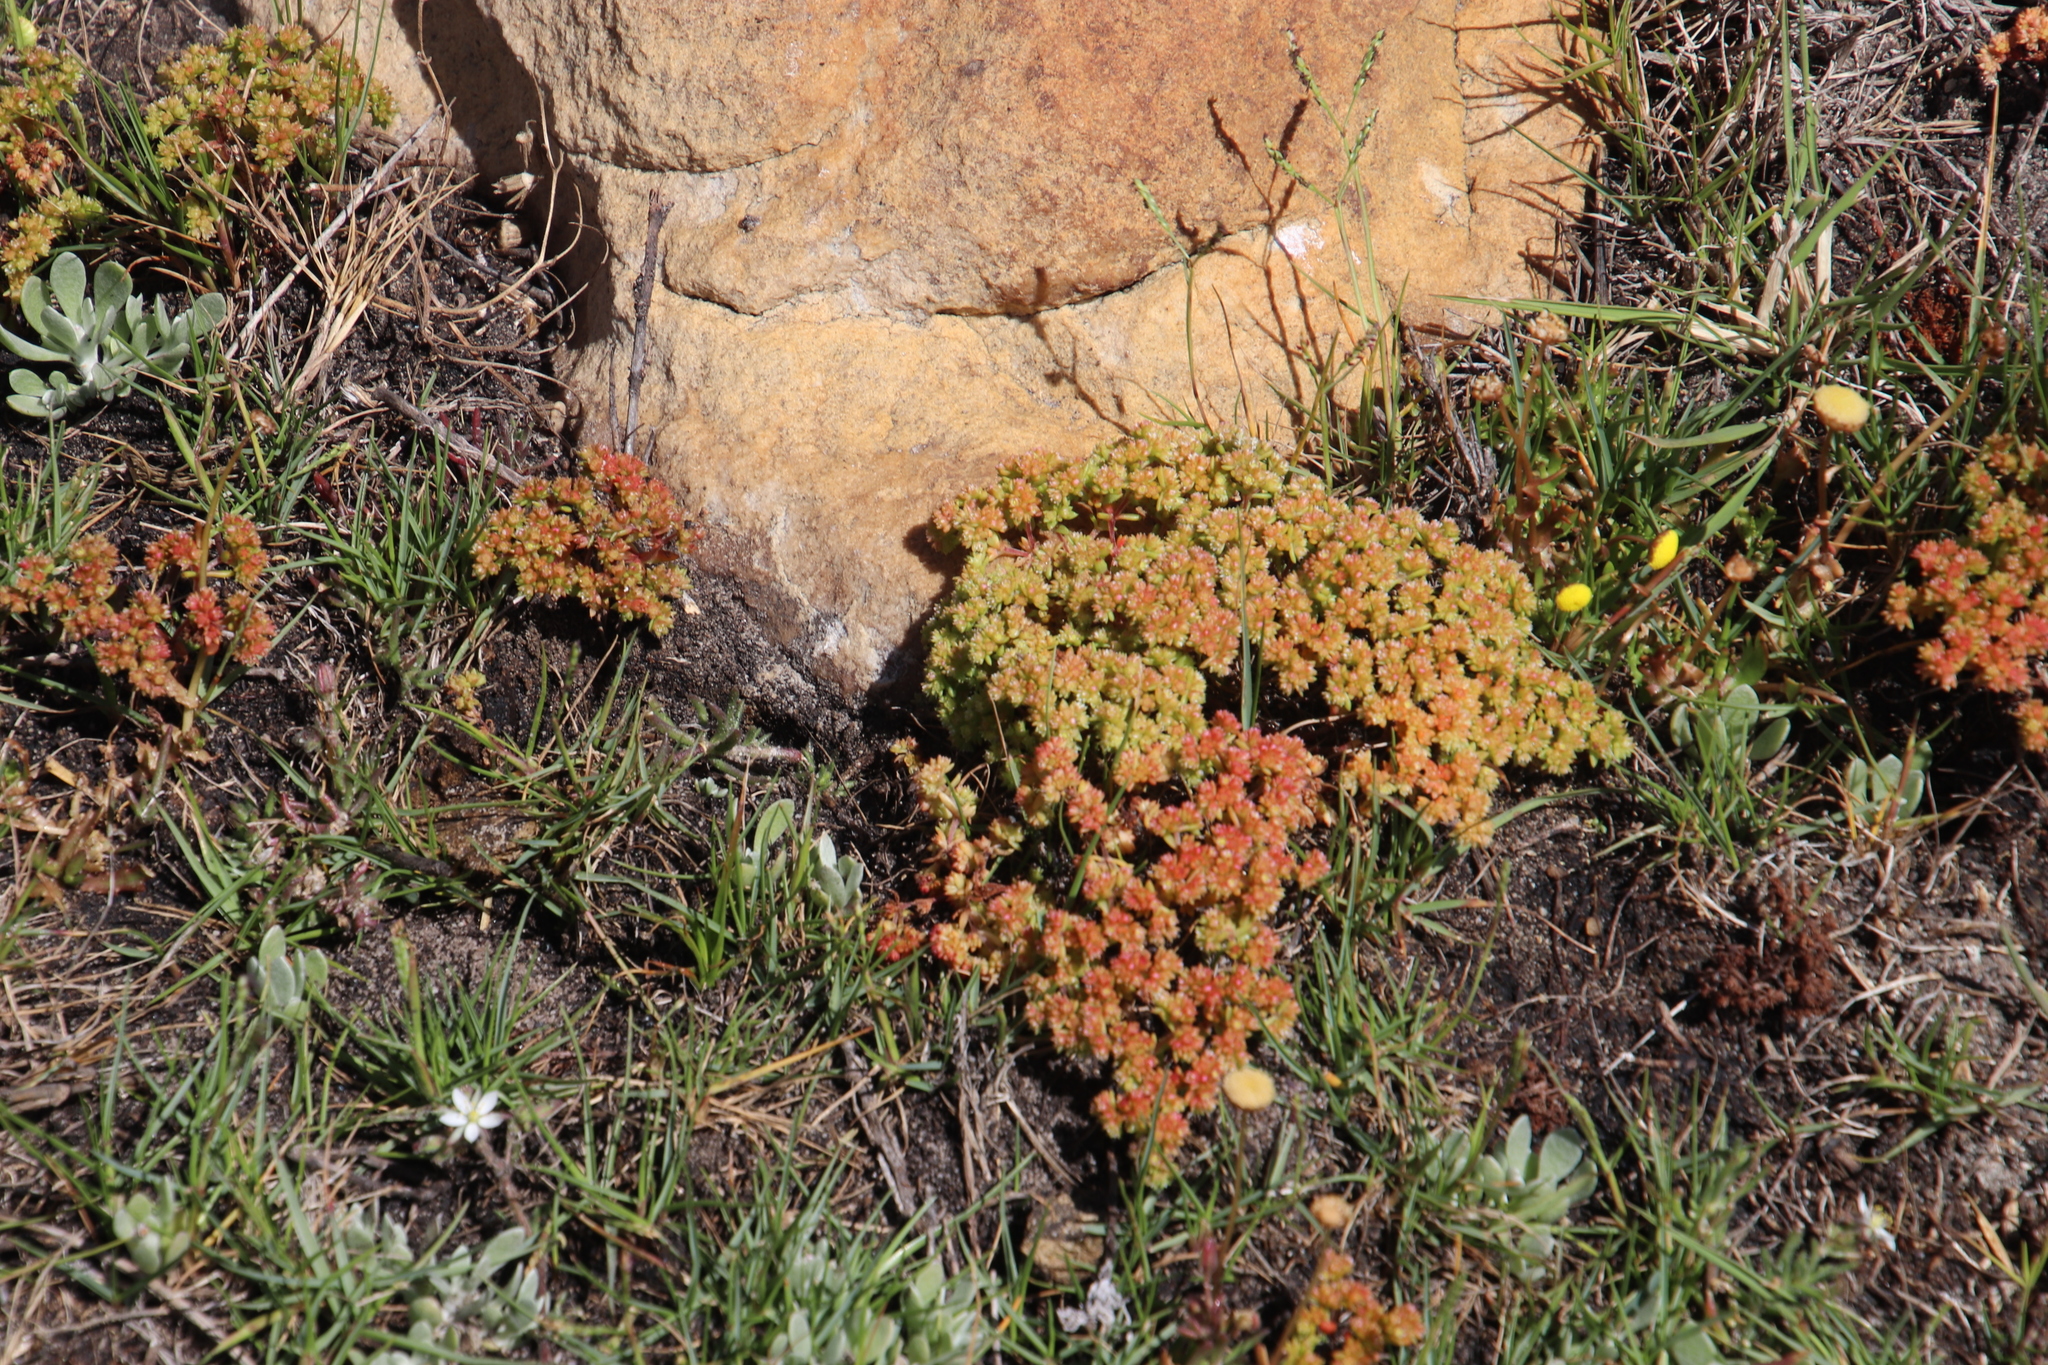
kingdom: Plantae
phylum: Tracheophyta
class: Magnoliopsida
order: Saxifragales
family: Crassulaceae
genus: Crassula
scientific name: Crassula glomerata
